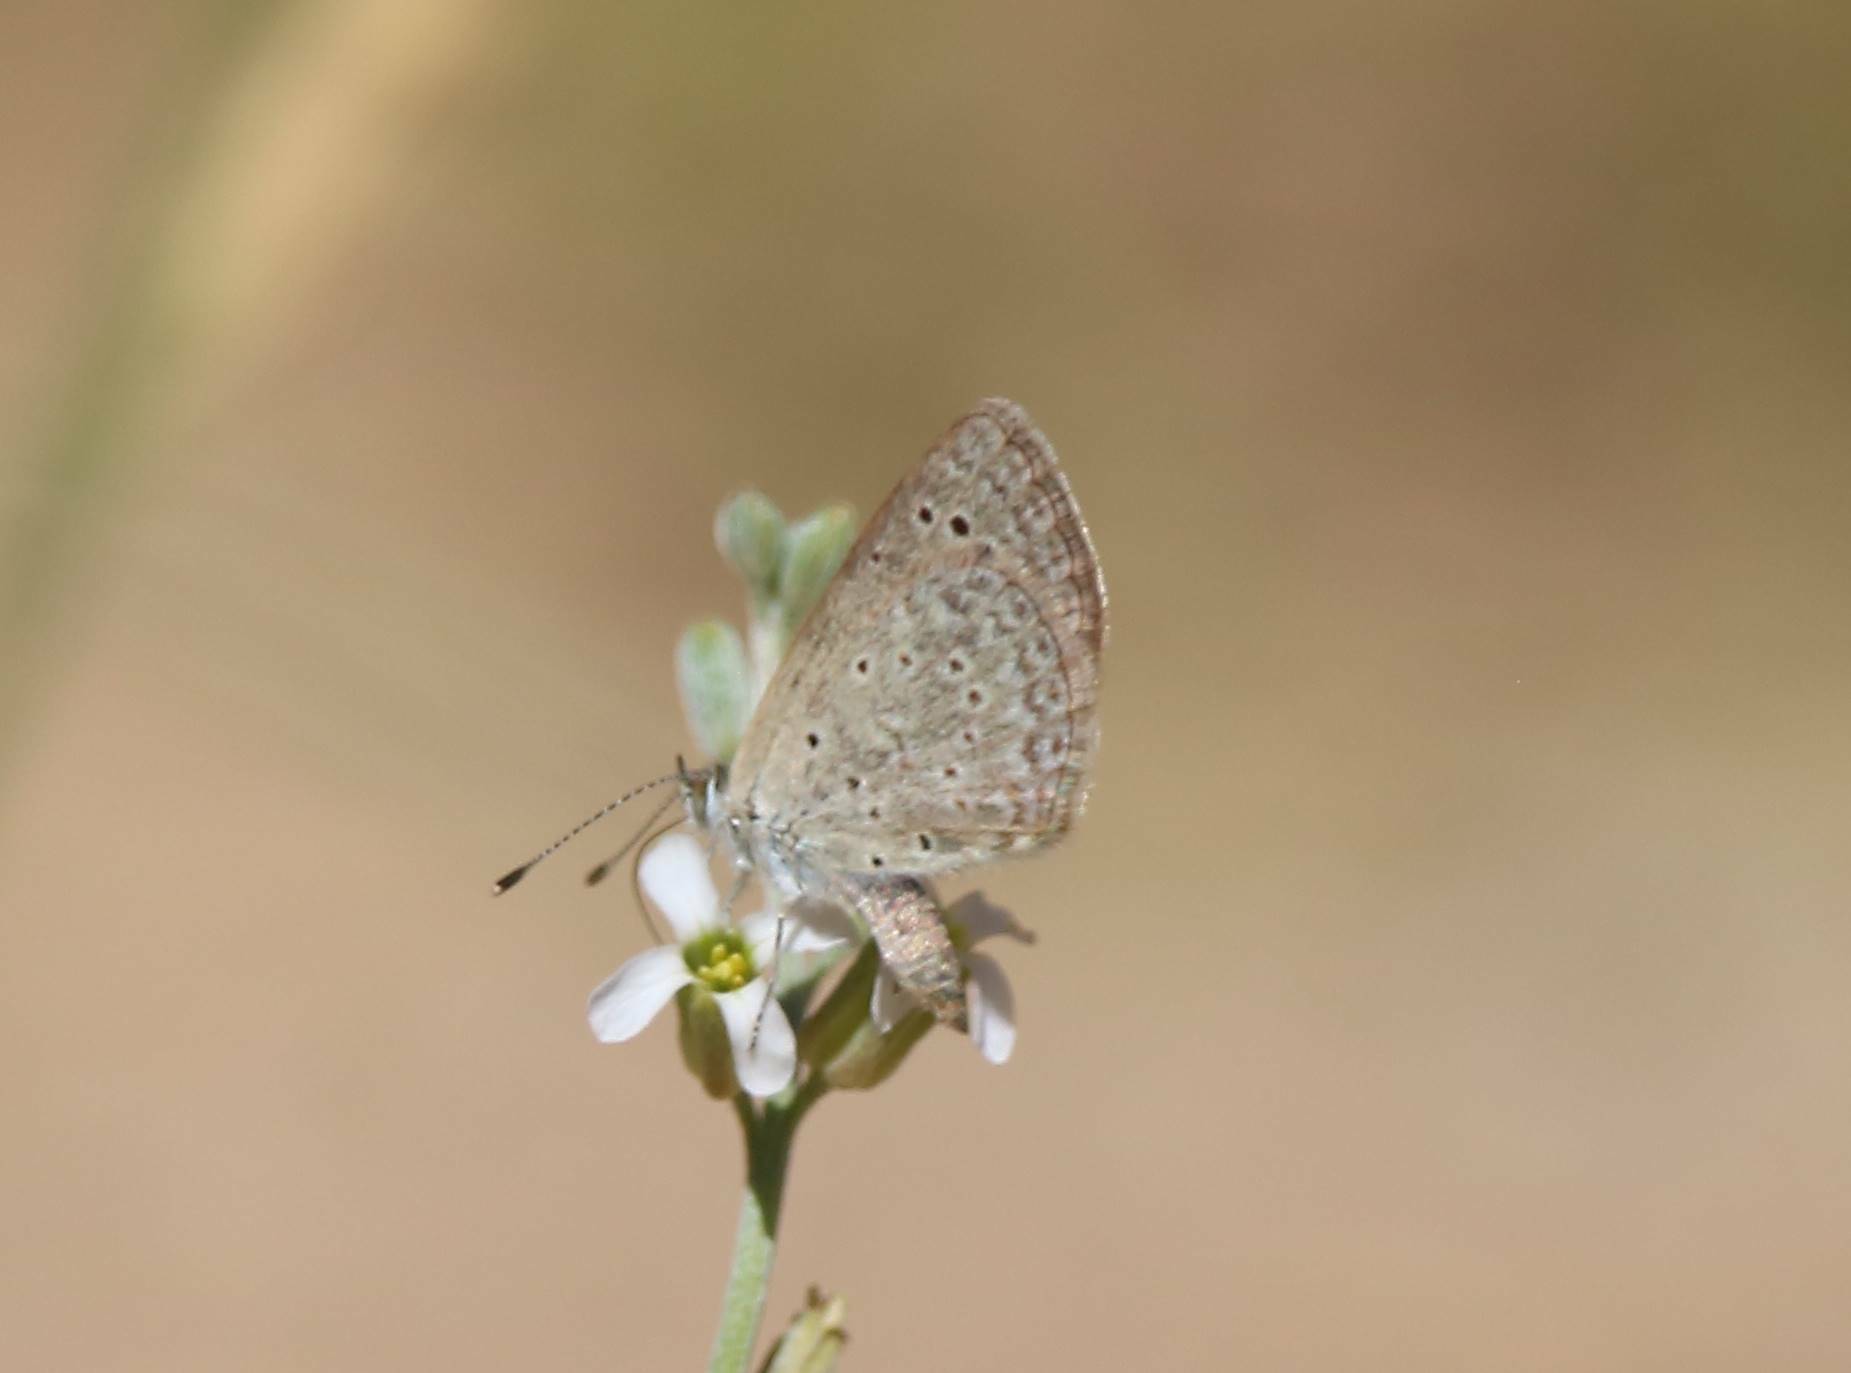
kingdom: Animalia
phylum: Arthropoda
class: Insecta
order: Lepidoptera
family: Lycaenidae
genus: Zizeeria
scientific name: Zizeeria knysna
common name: African grass blue
